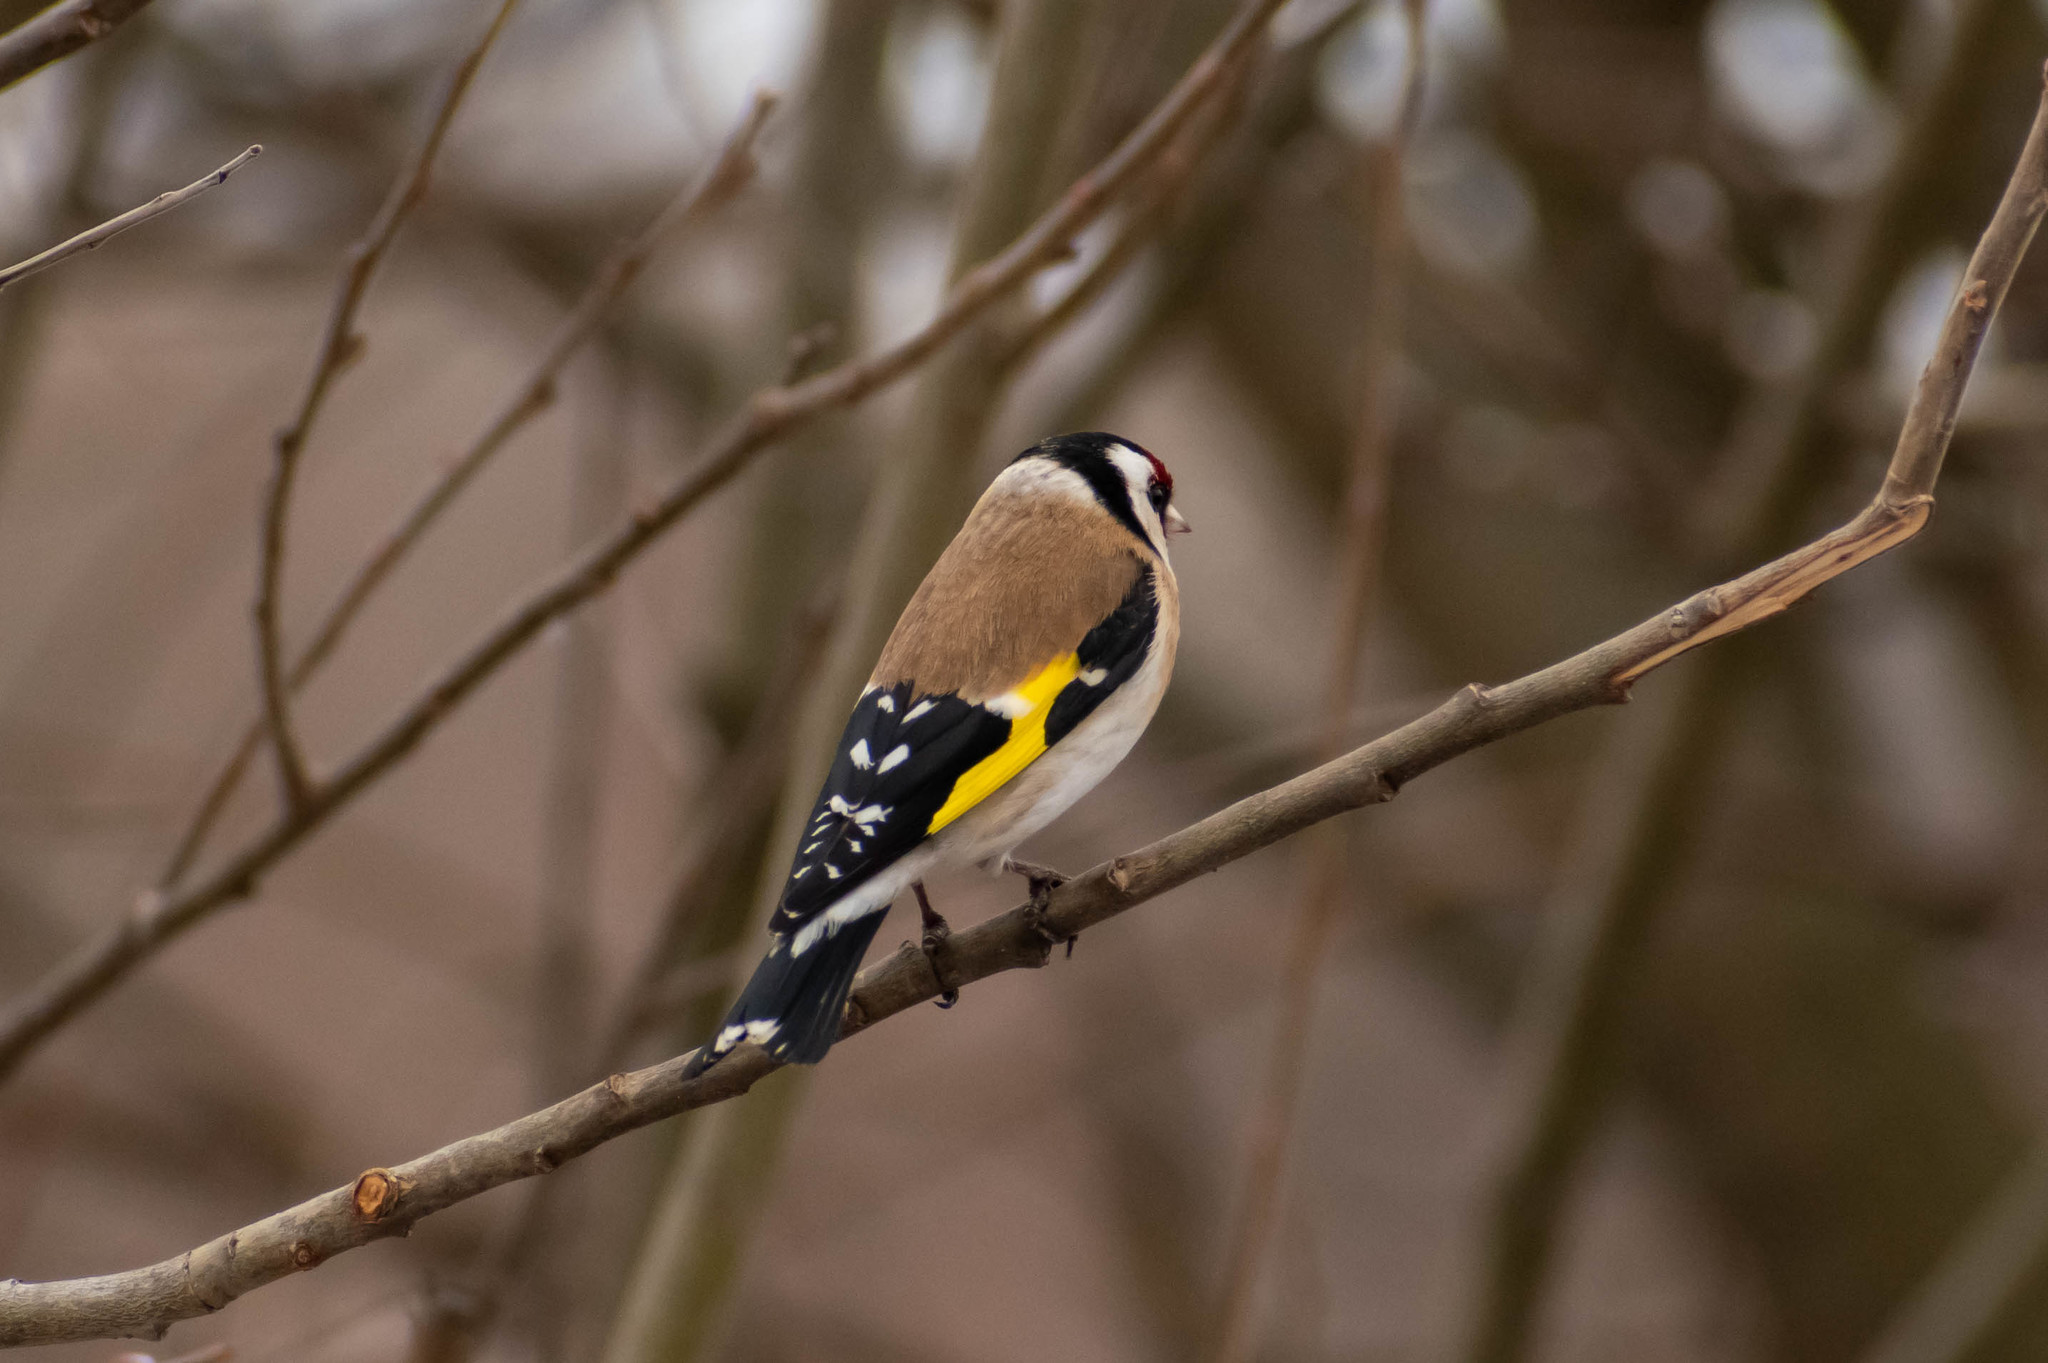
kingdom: Animalia
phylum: Chordata
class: Aves
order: Passeriformes
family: Fringillidae
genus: Carduelis
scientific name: Carduelis carduelis
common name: European goldfinch
